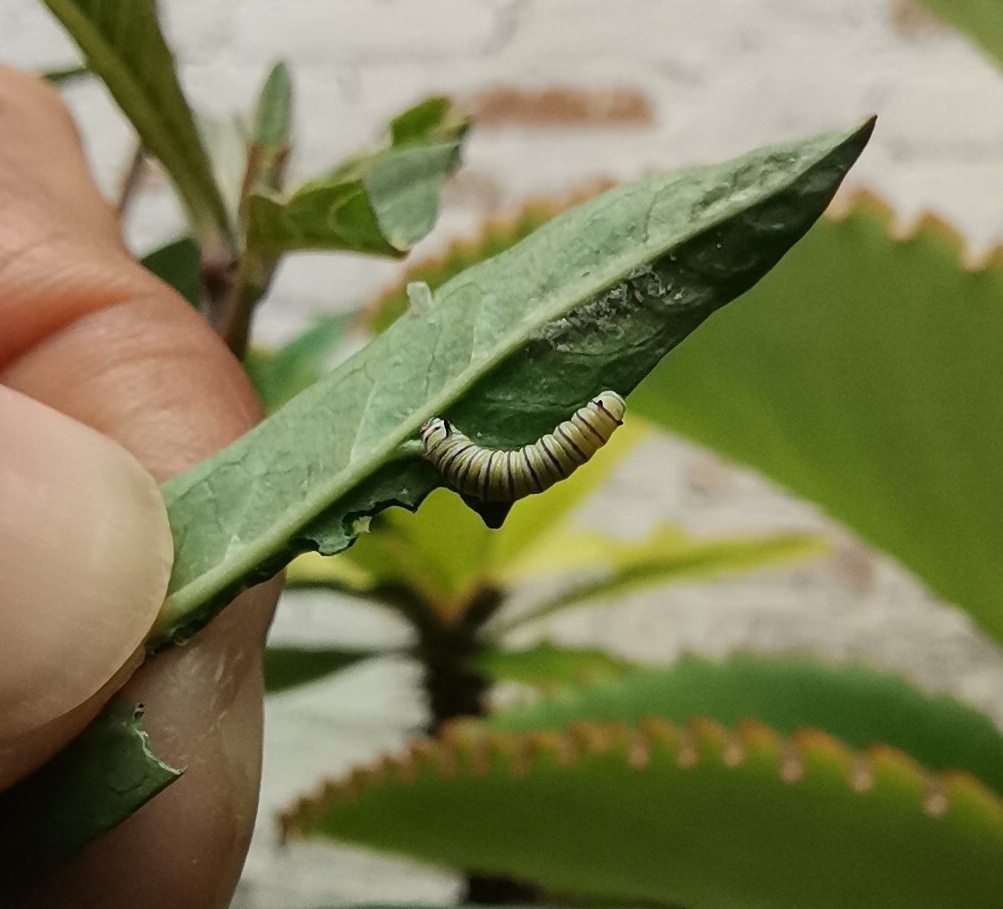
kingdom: Animalia
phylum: Arthropoda
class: Insecta
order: Lepidoptera
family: Nymphalidae
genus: Danaus
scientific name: Danaus plexippus
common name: Monarch
